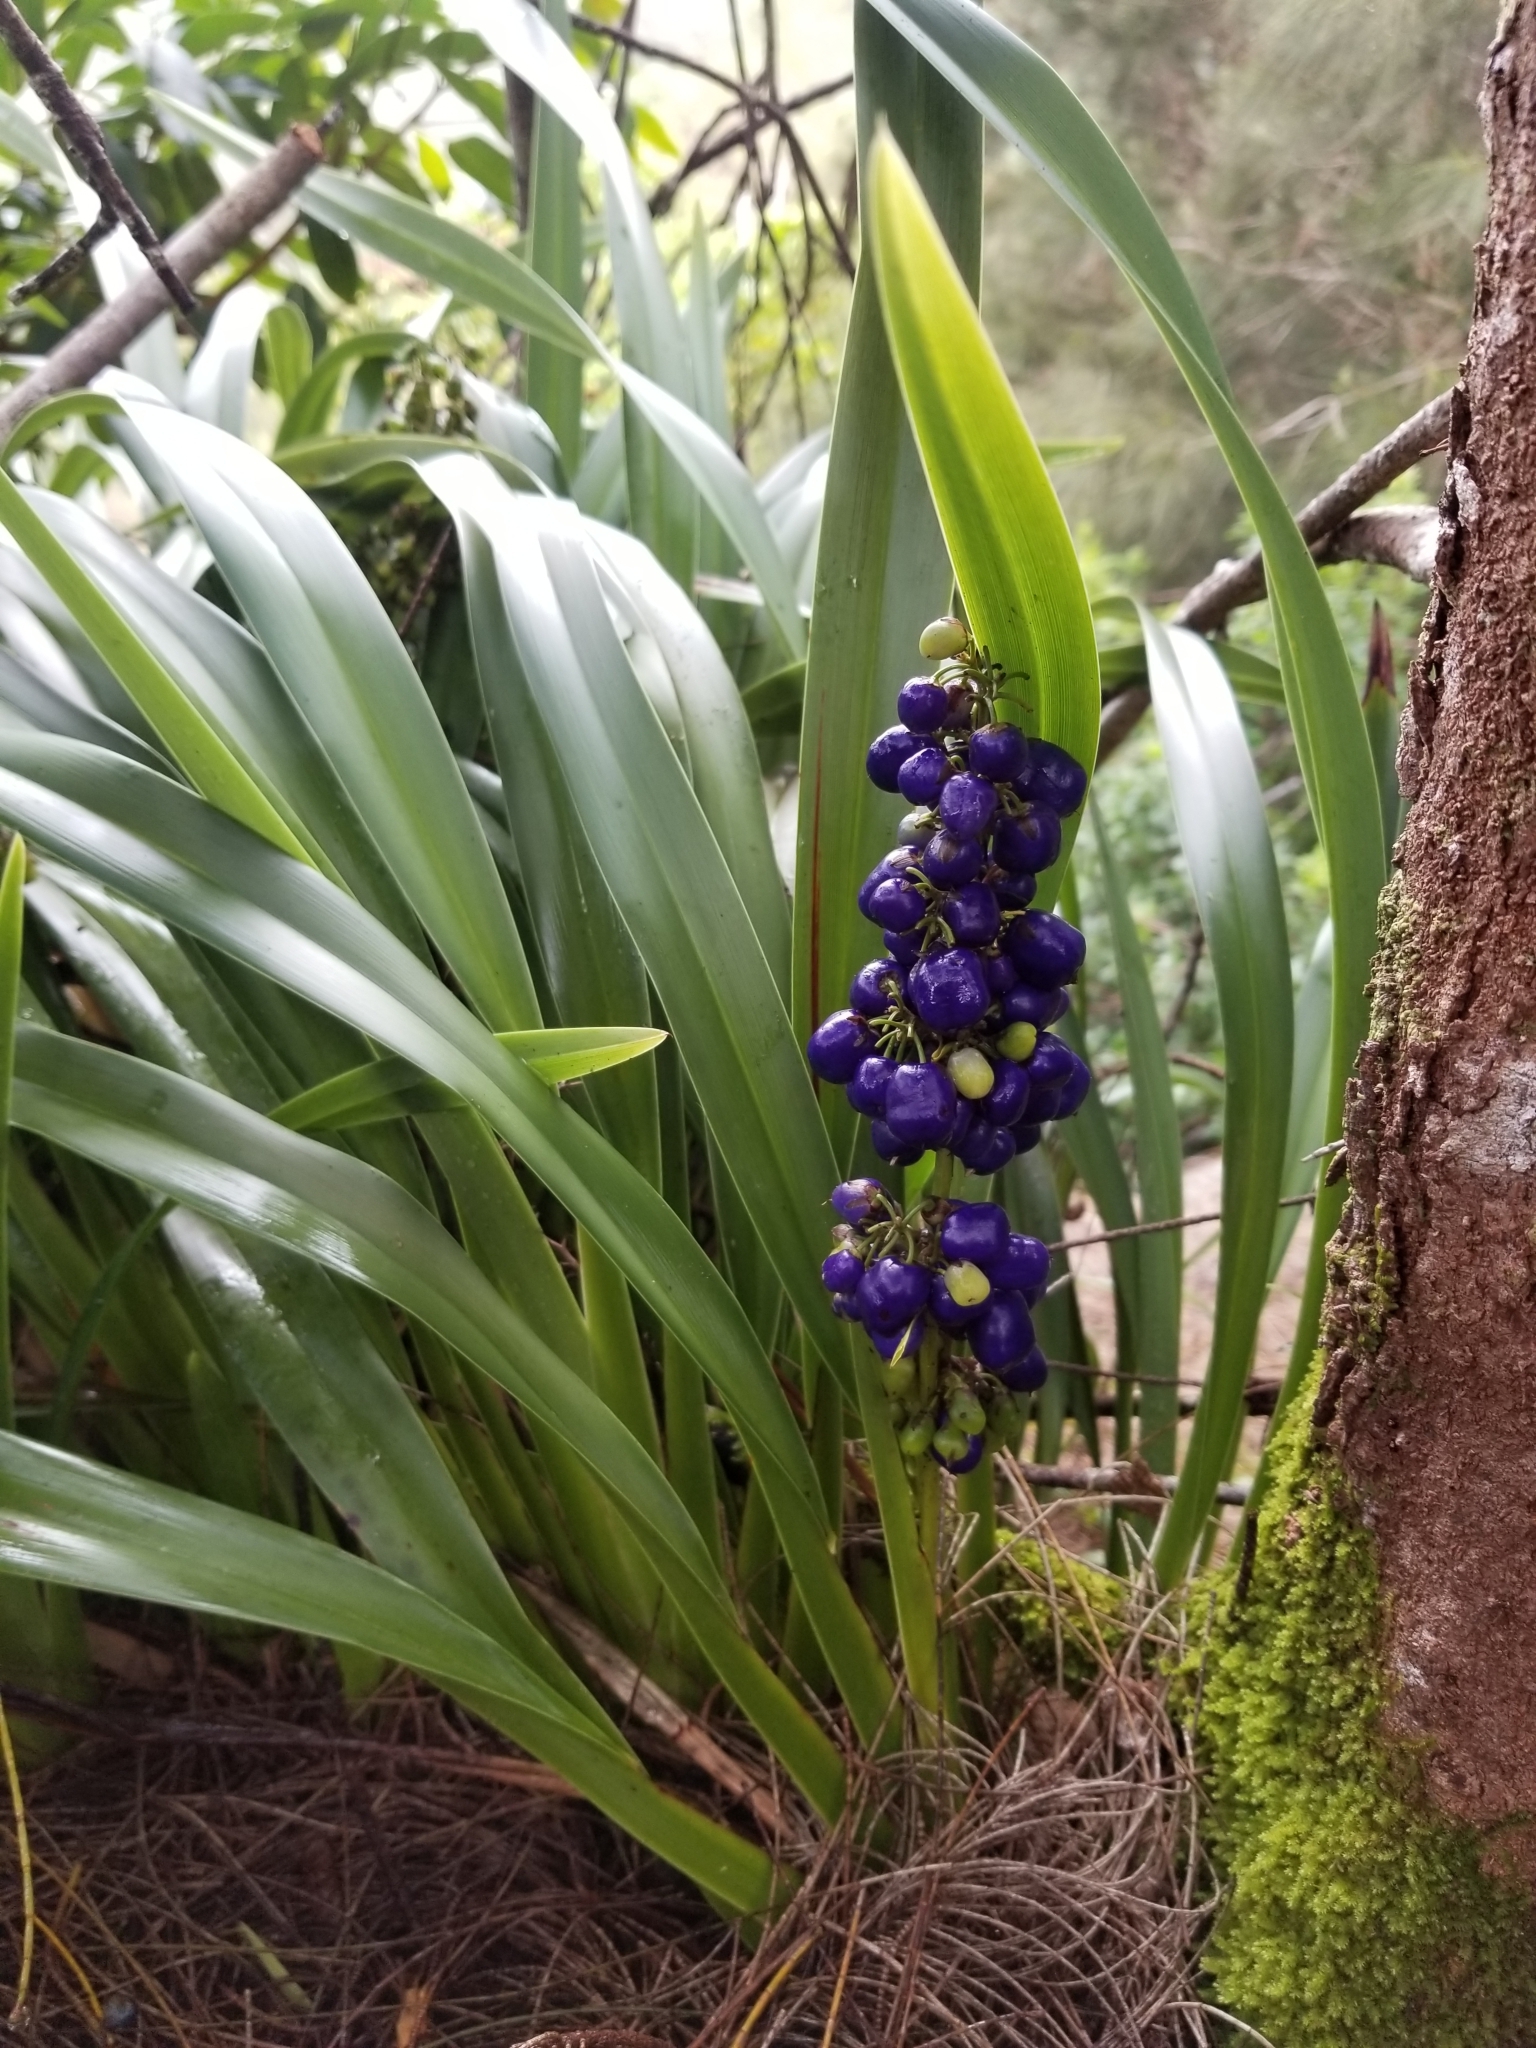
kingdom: Plantae
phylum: Tracheophyta
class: Liliopsida
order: Asparagales
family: Asphodelaceae
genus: Dianella
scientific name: Dianella sandwicensis
